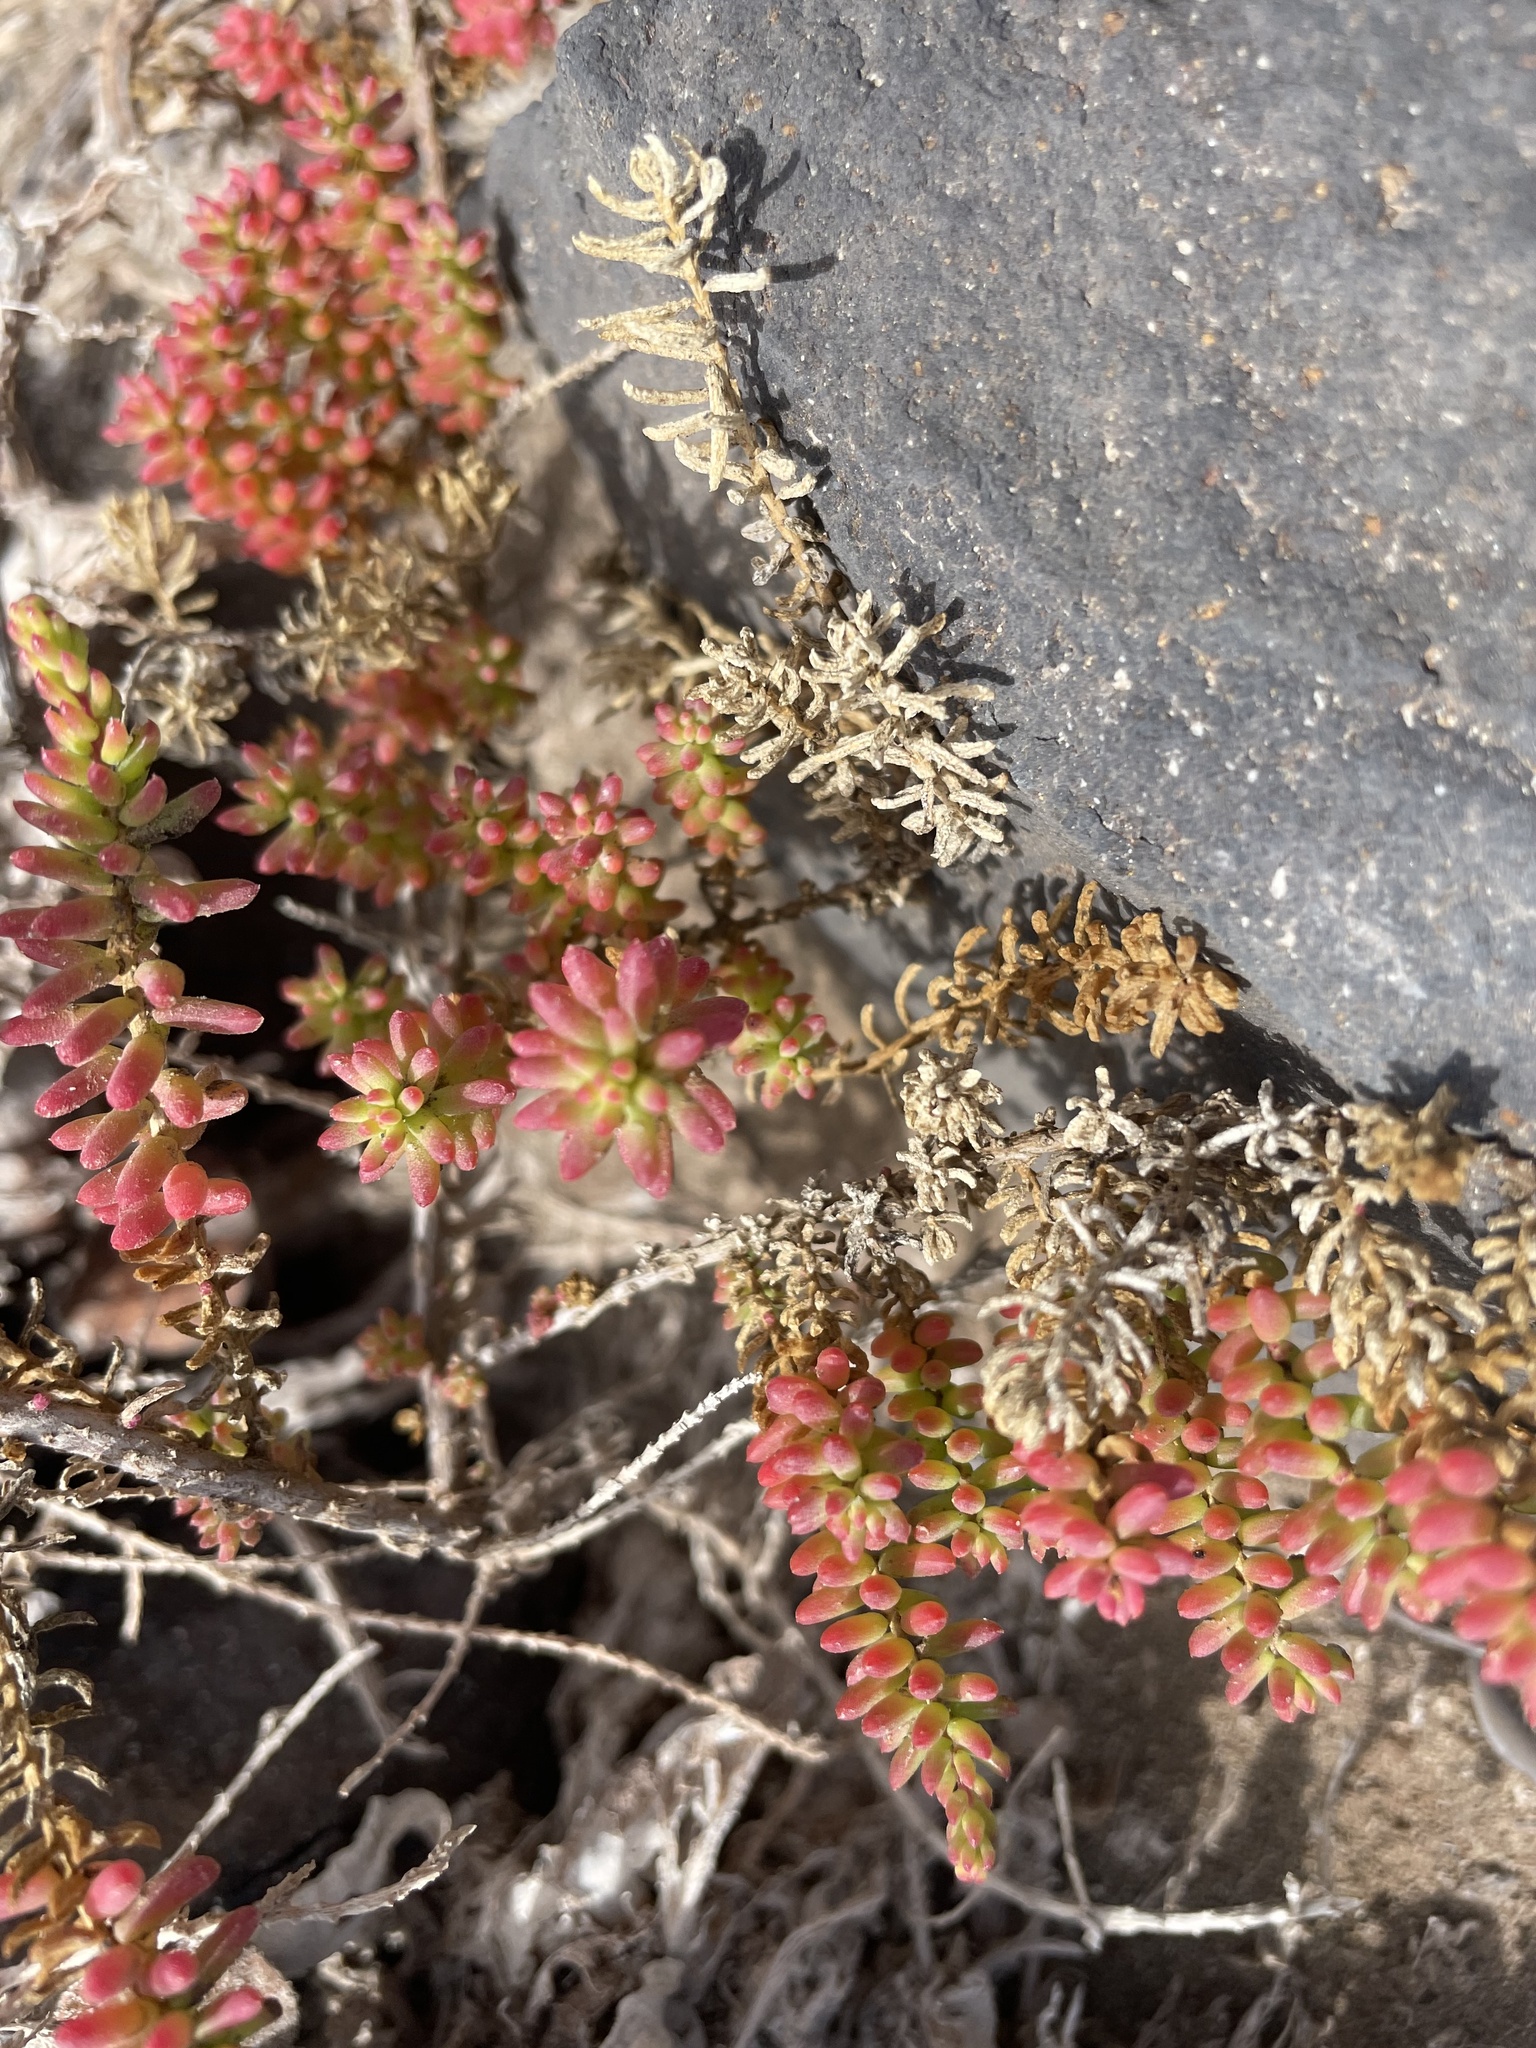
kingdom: Plantae
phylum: Tracheophyta
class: Magnoliopsida
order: Caryophyllales
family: Amaranthaceae
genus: Suaeda
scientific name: Suaeda vera
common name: Shrubby sea-blite
